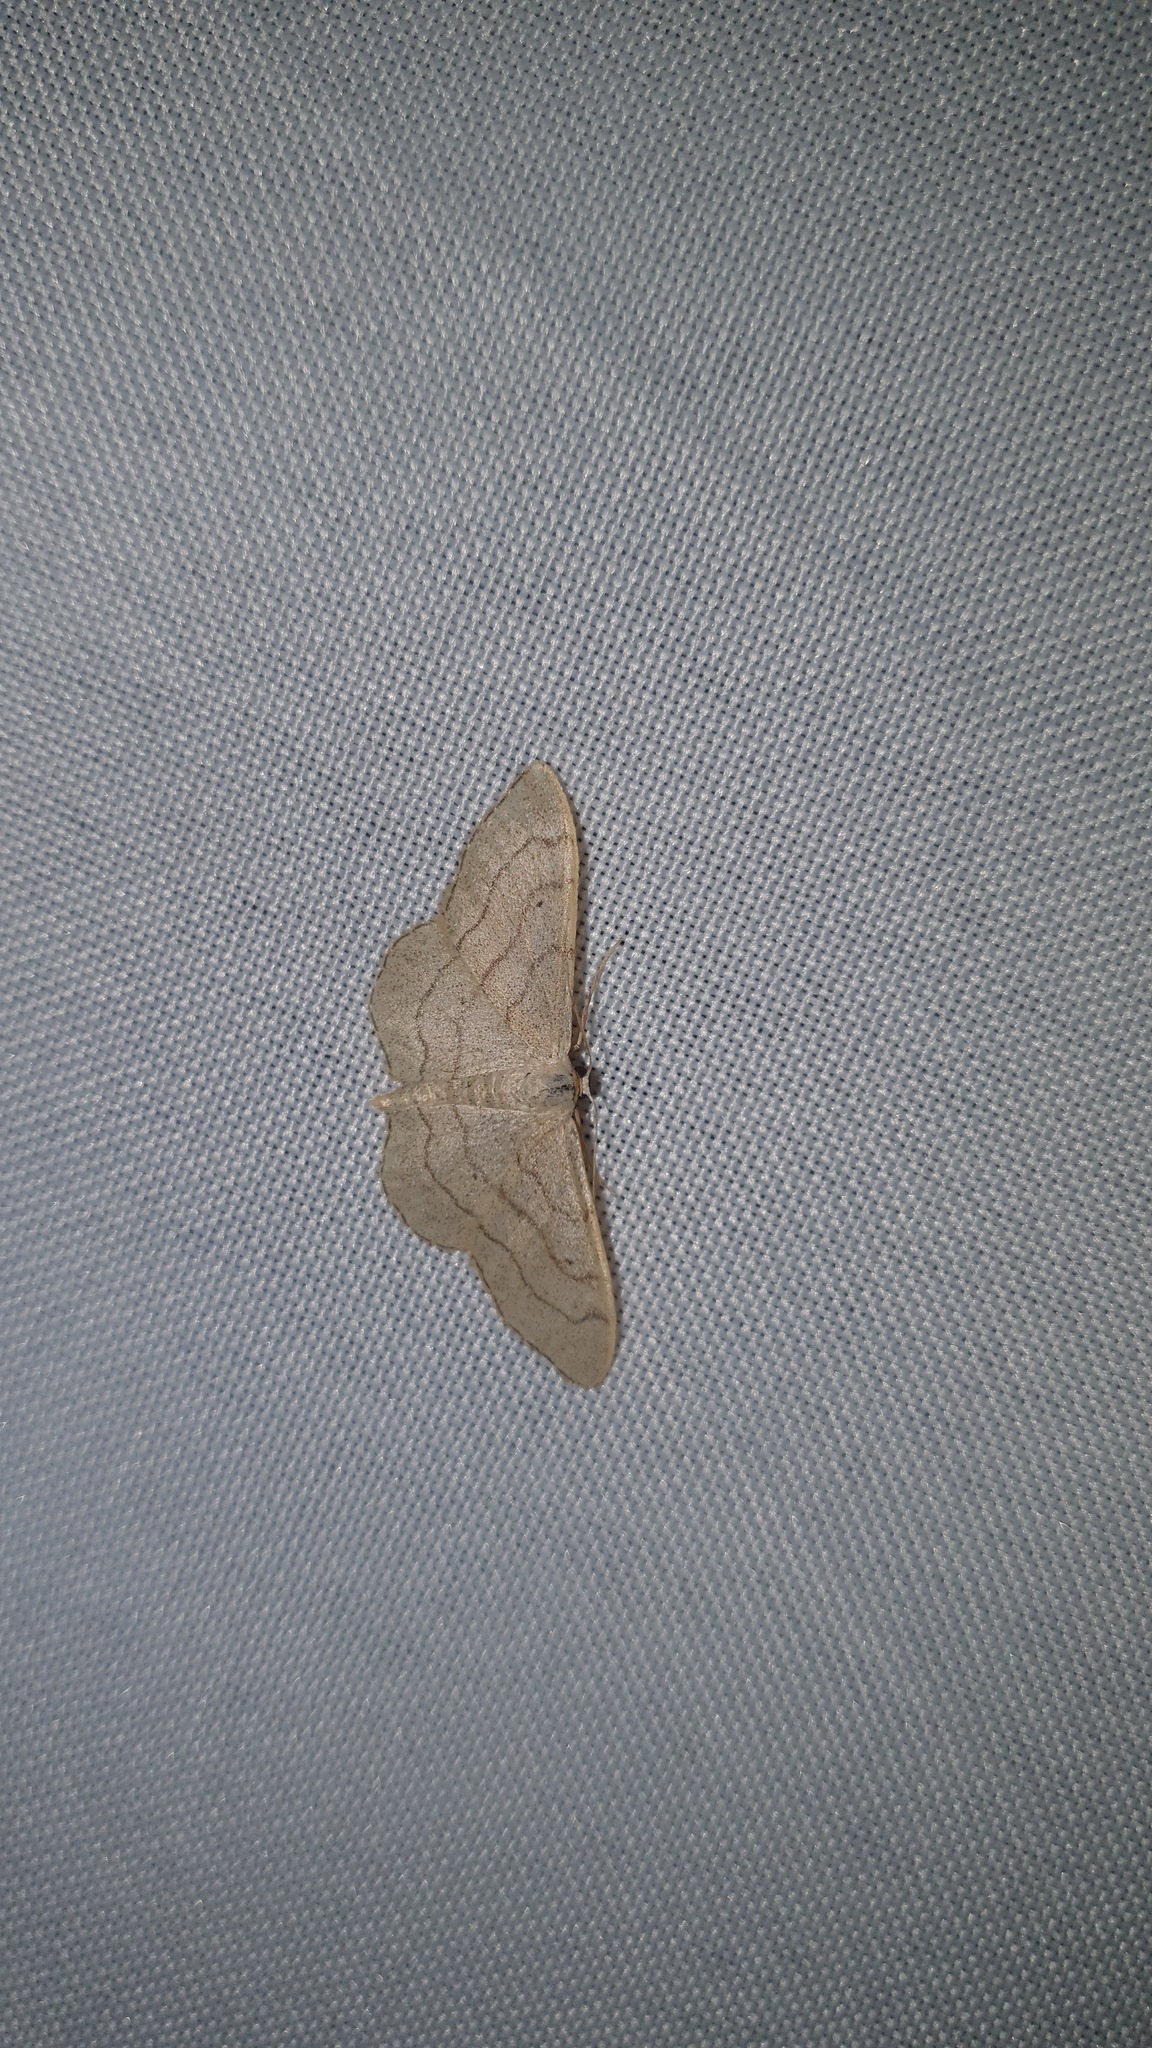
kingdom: Animalia
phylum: Arthropoda
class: Insecta
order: Lepidoptera
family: Geometridae
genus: Idaea
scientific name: Idaea aversata
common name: Riband wave
